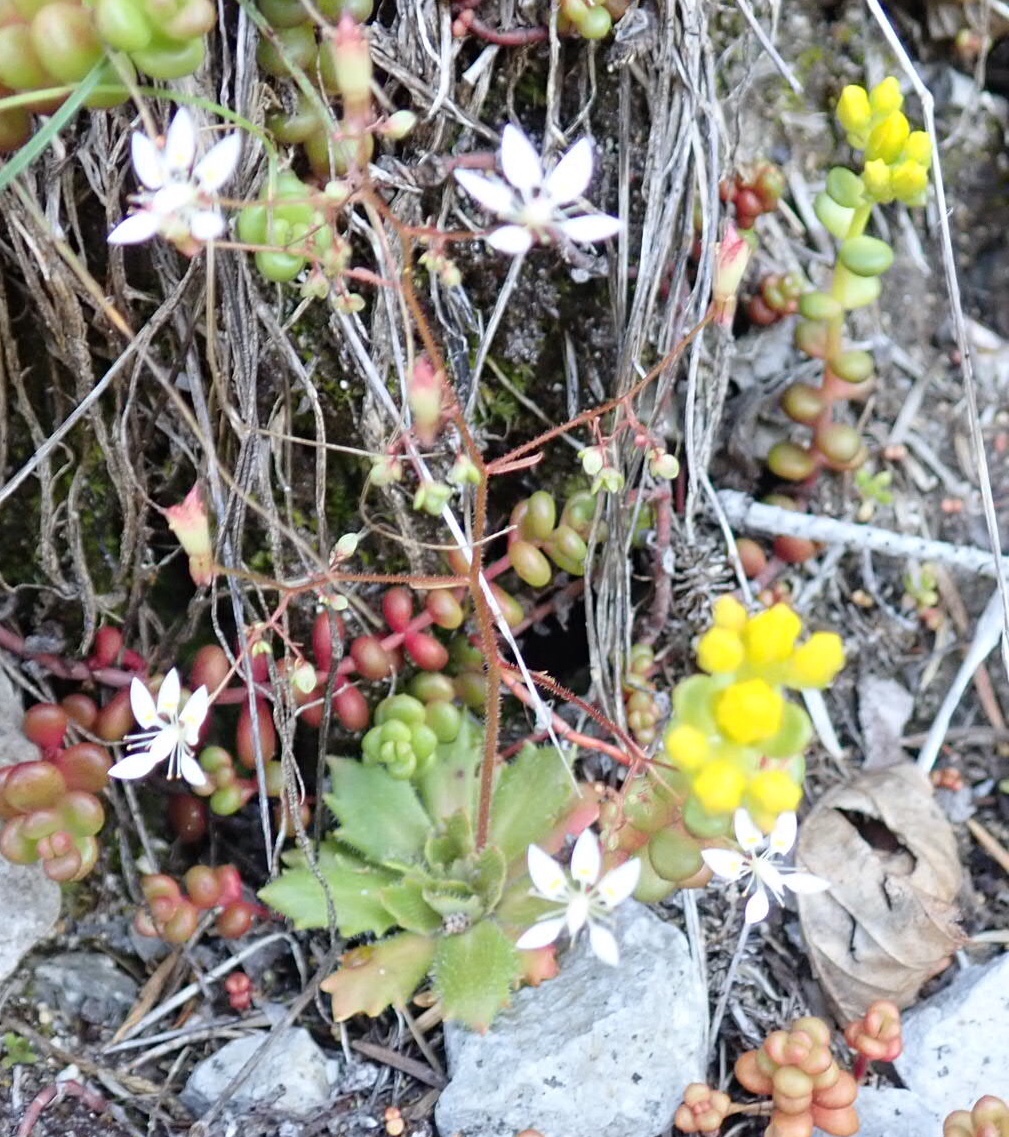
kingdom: Plantae
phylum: Tracheophyta
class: Magnoliopsida
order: Saxifragales
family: Saxifragaceae
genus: Micranthes
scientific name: Micranthes ferruginea
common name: Rusty saxifrage
